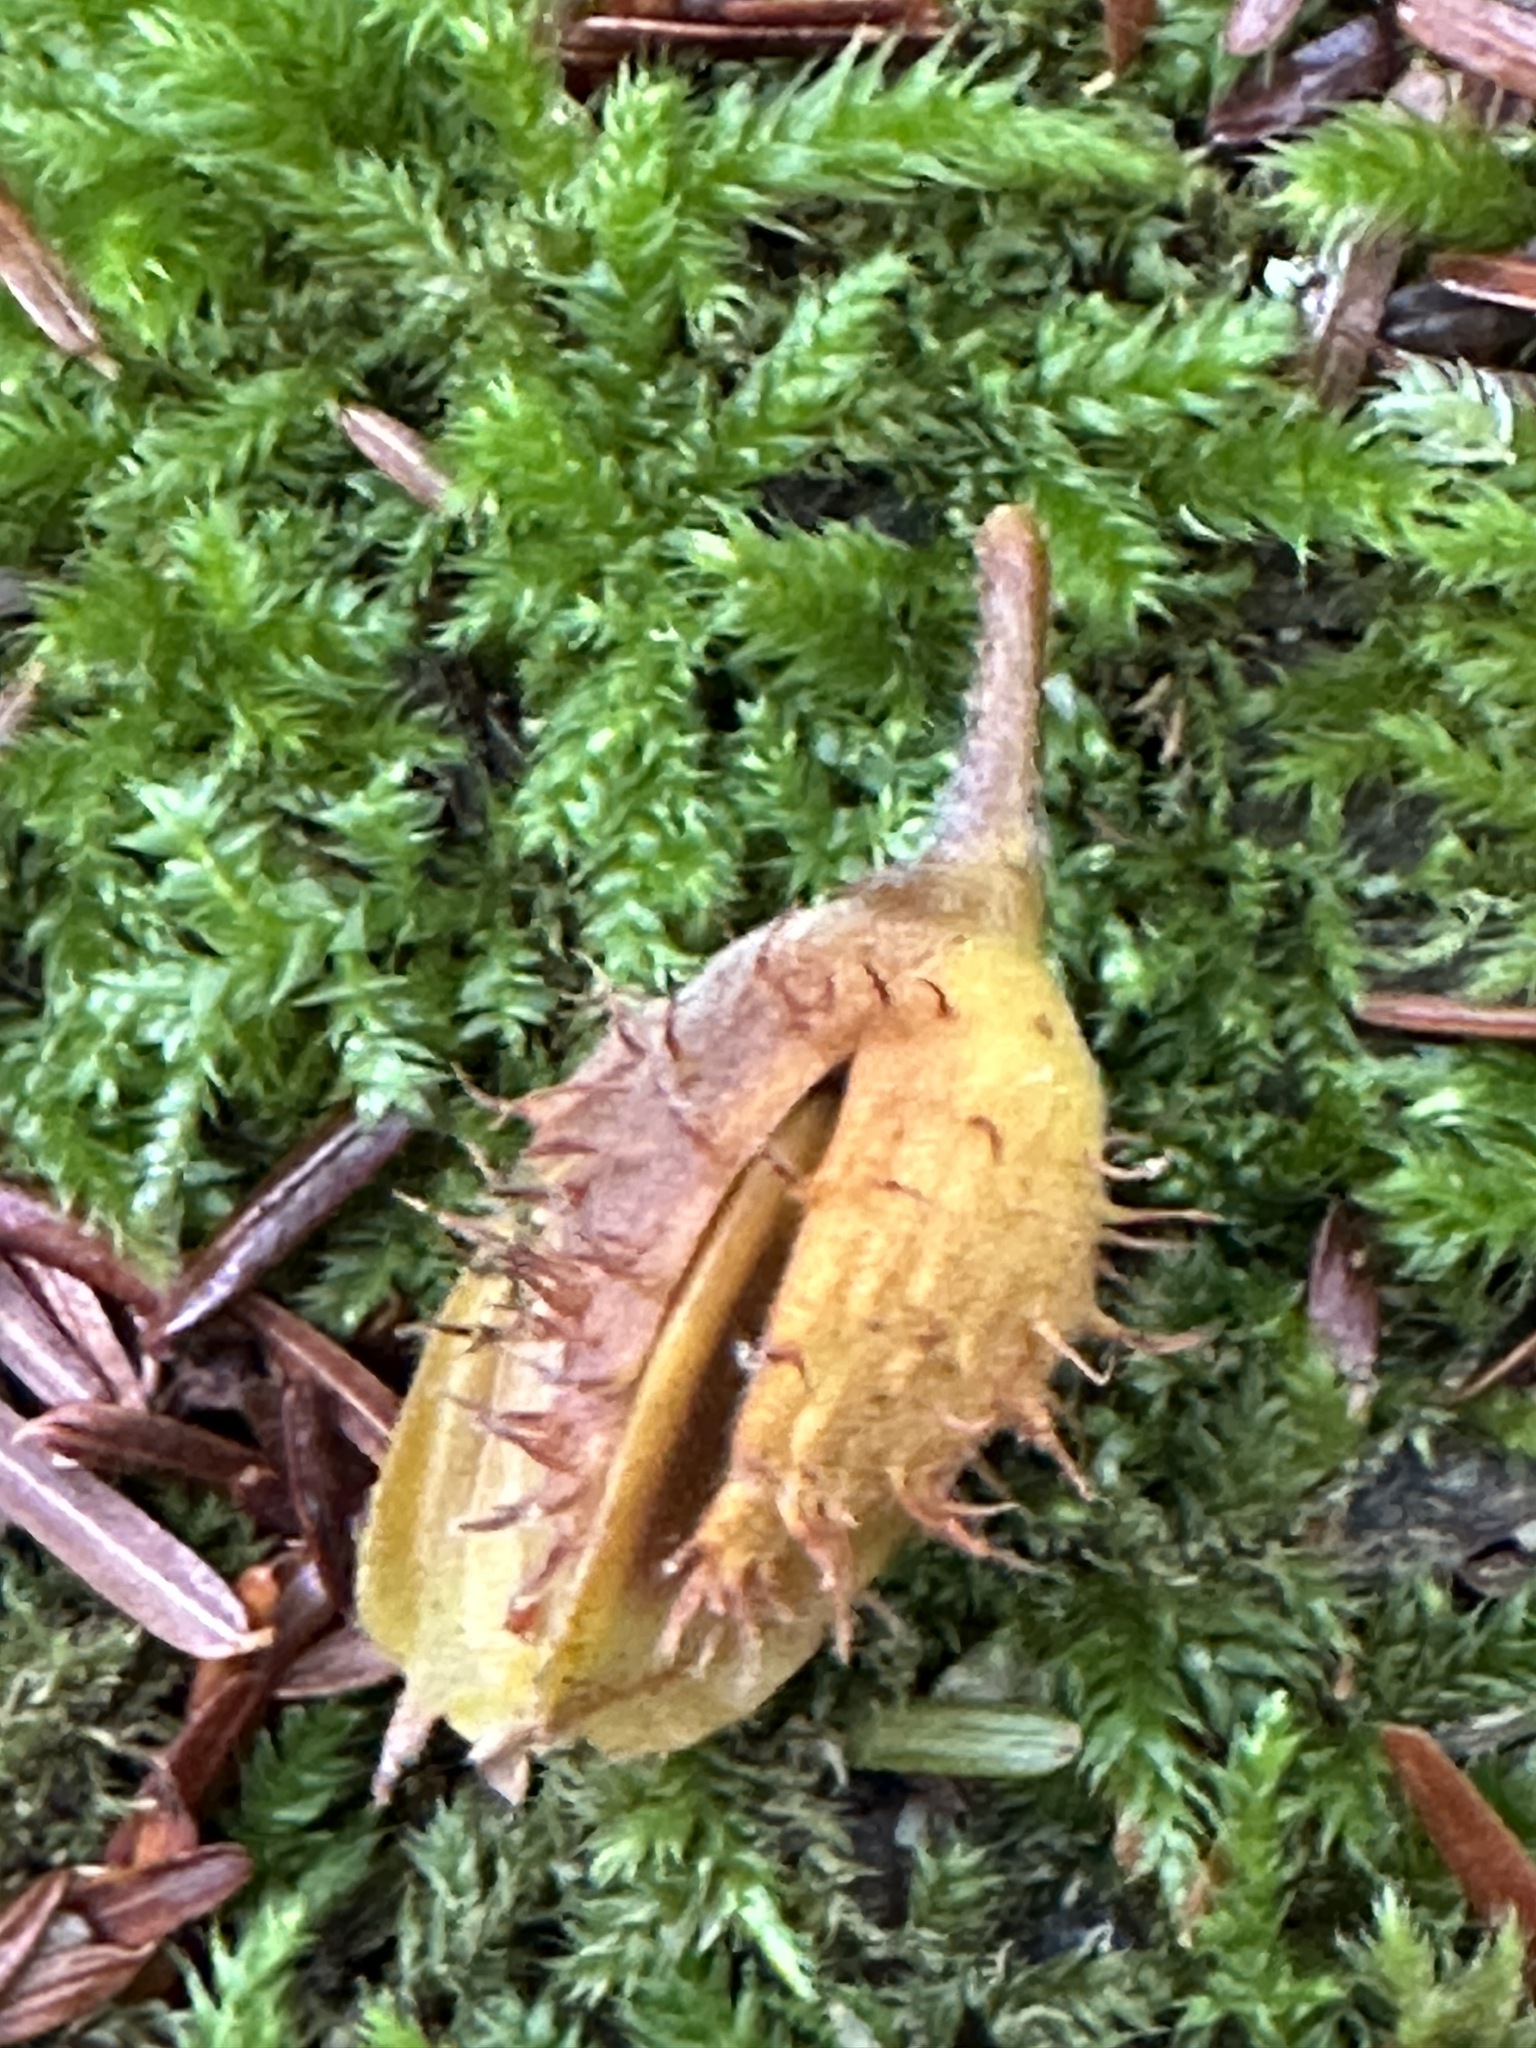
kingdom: Plantae
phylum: Tracheophyta
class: Magnoliopsida
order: Fagales
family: Fagaceae
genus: Fagus
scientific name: Fagus grandifolia
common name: American beech
